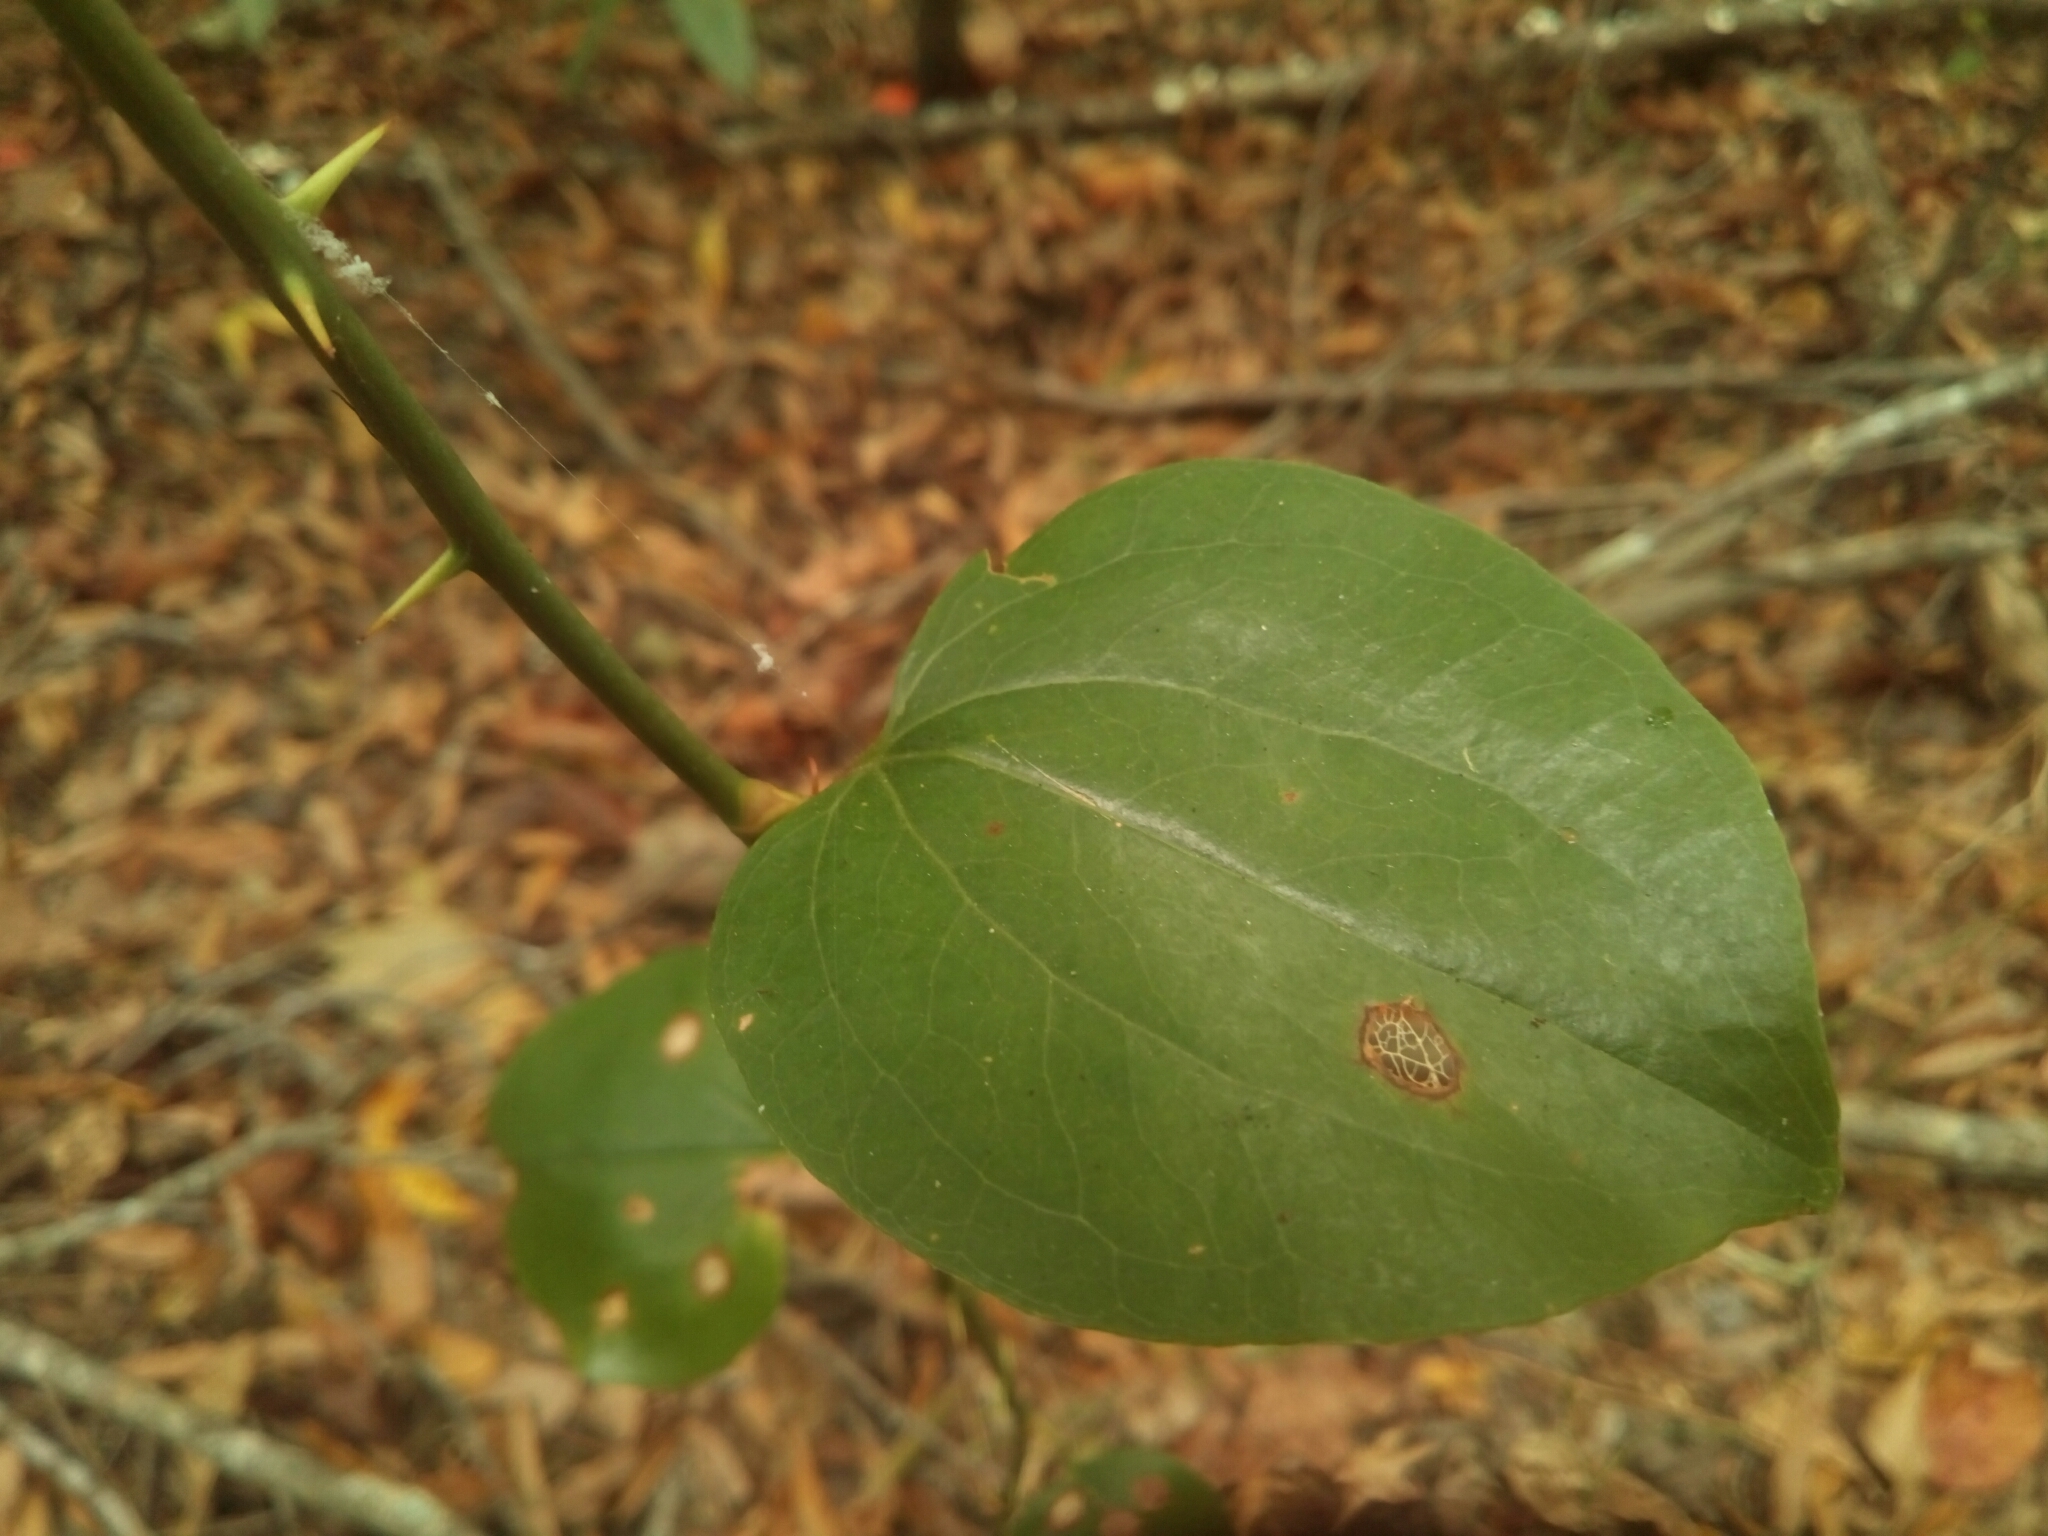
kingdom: Plantae
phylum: Tracheophyta
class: Liliopsida
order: Liliales
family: Smilacaceae
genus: Smilax
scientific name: Smilax rotundifolia
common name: Bullbriar
